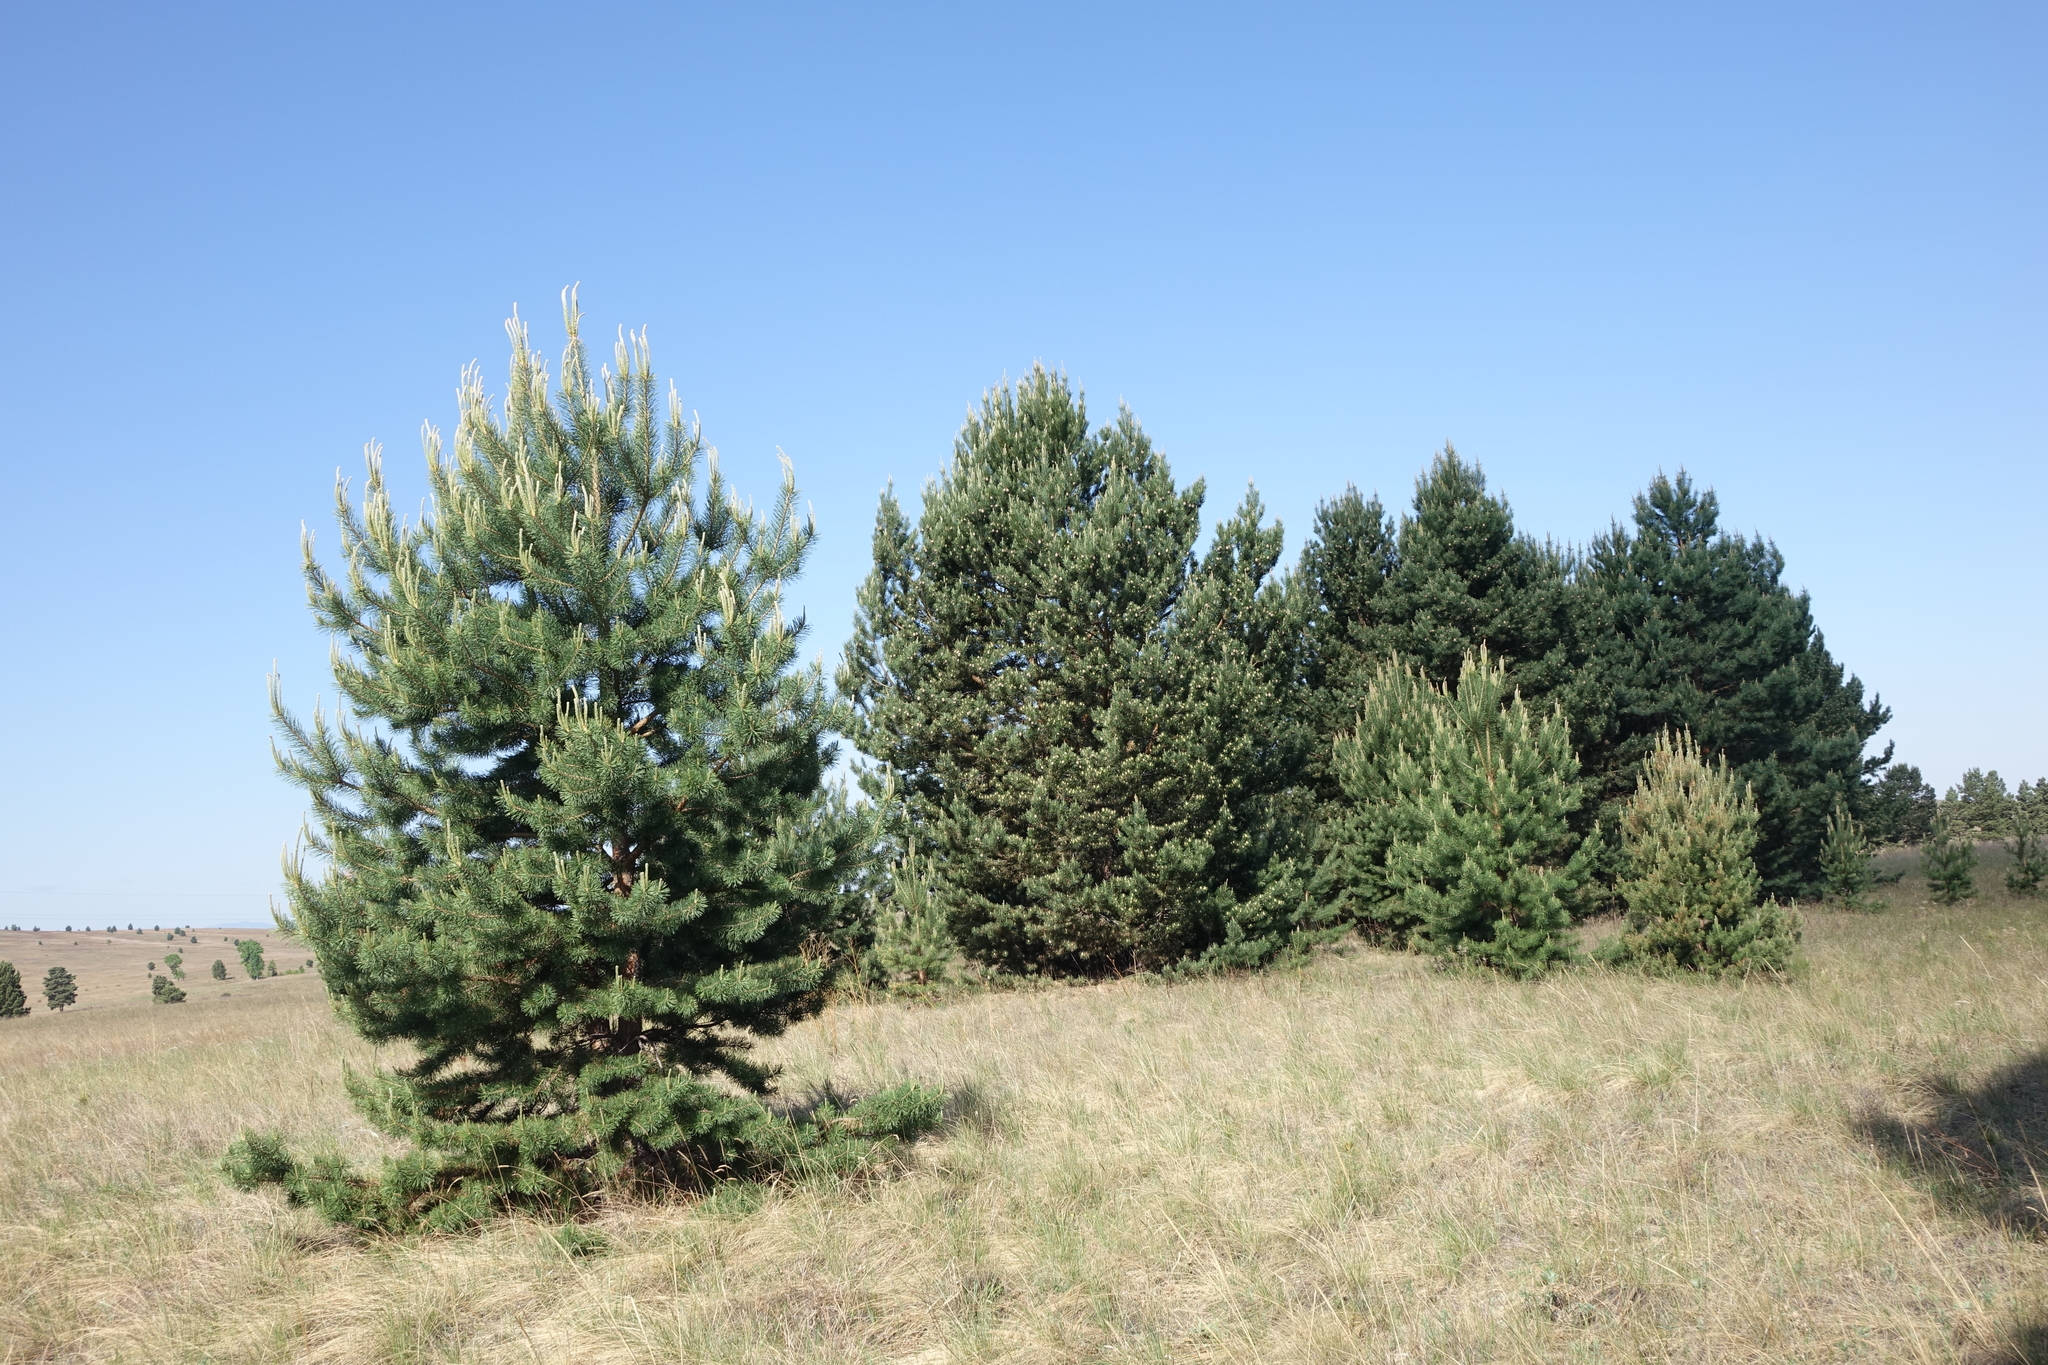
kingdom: Plantae
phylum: Tracheophyta
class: Pinopsida
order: Pinales
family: Pinaceae
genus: Pinus
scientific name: Pinus sylvestris
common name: Scots pine
